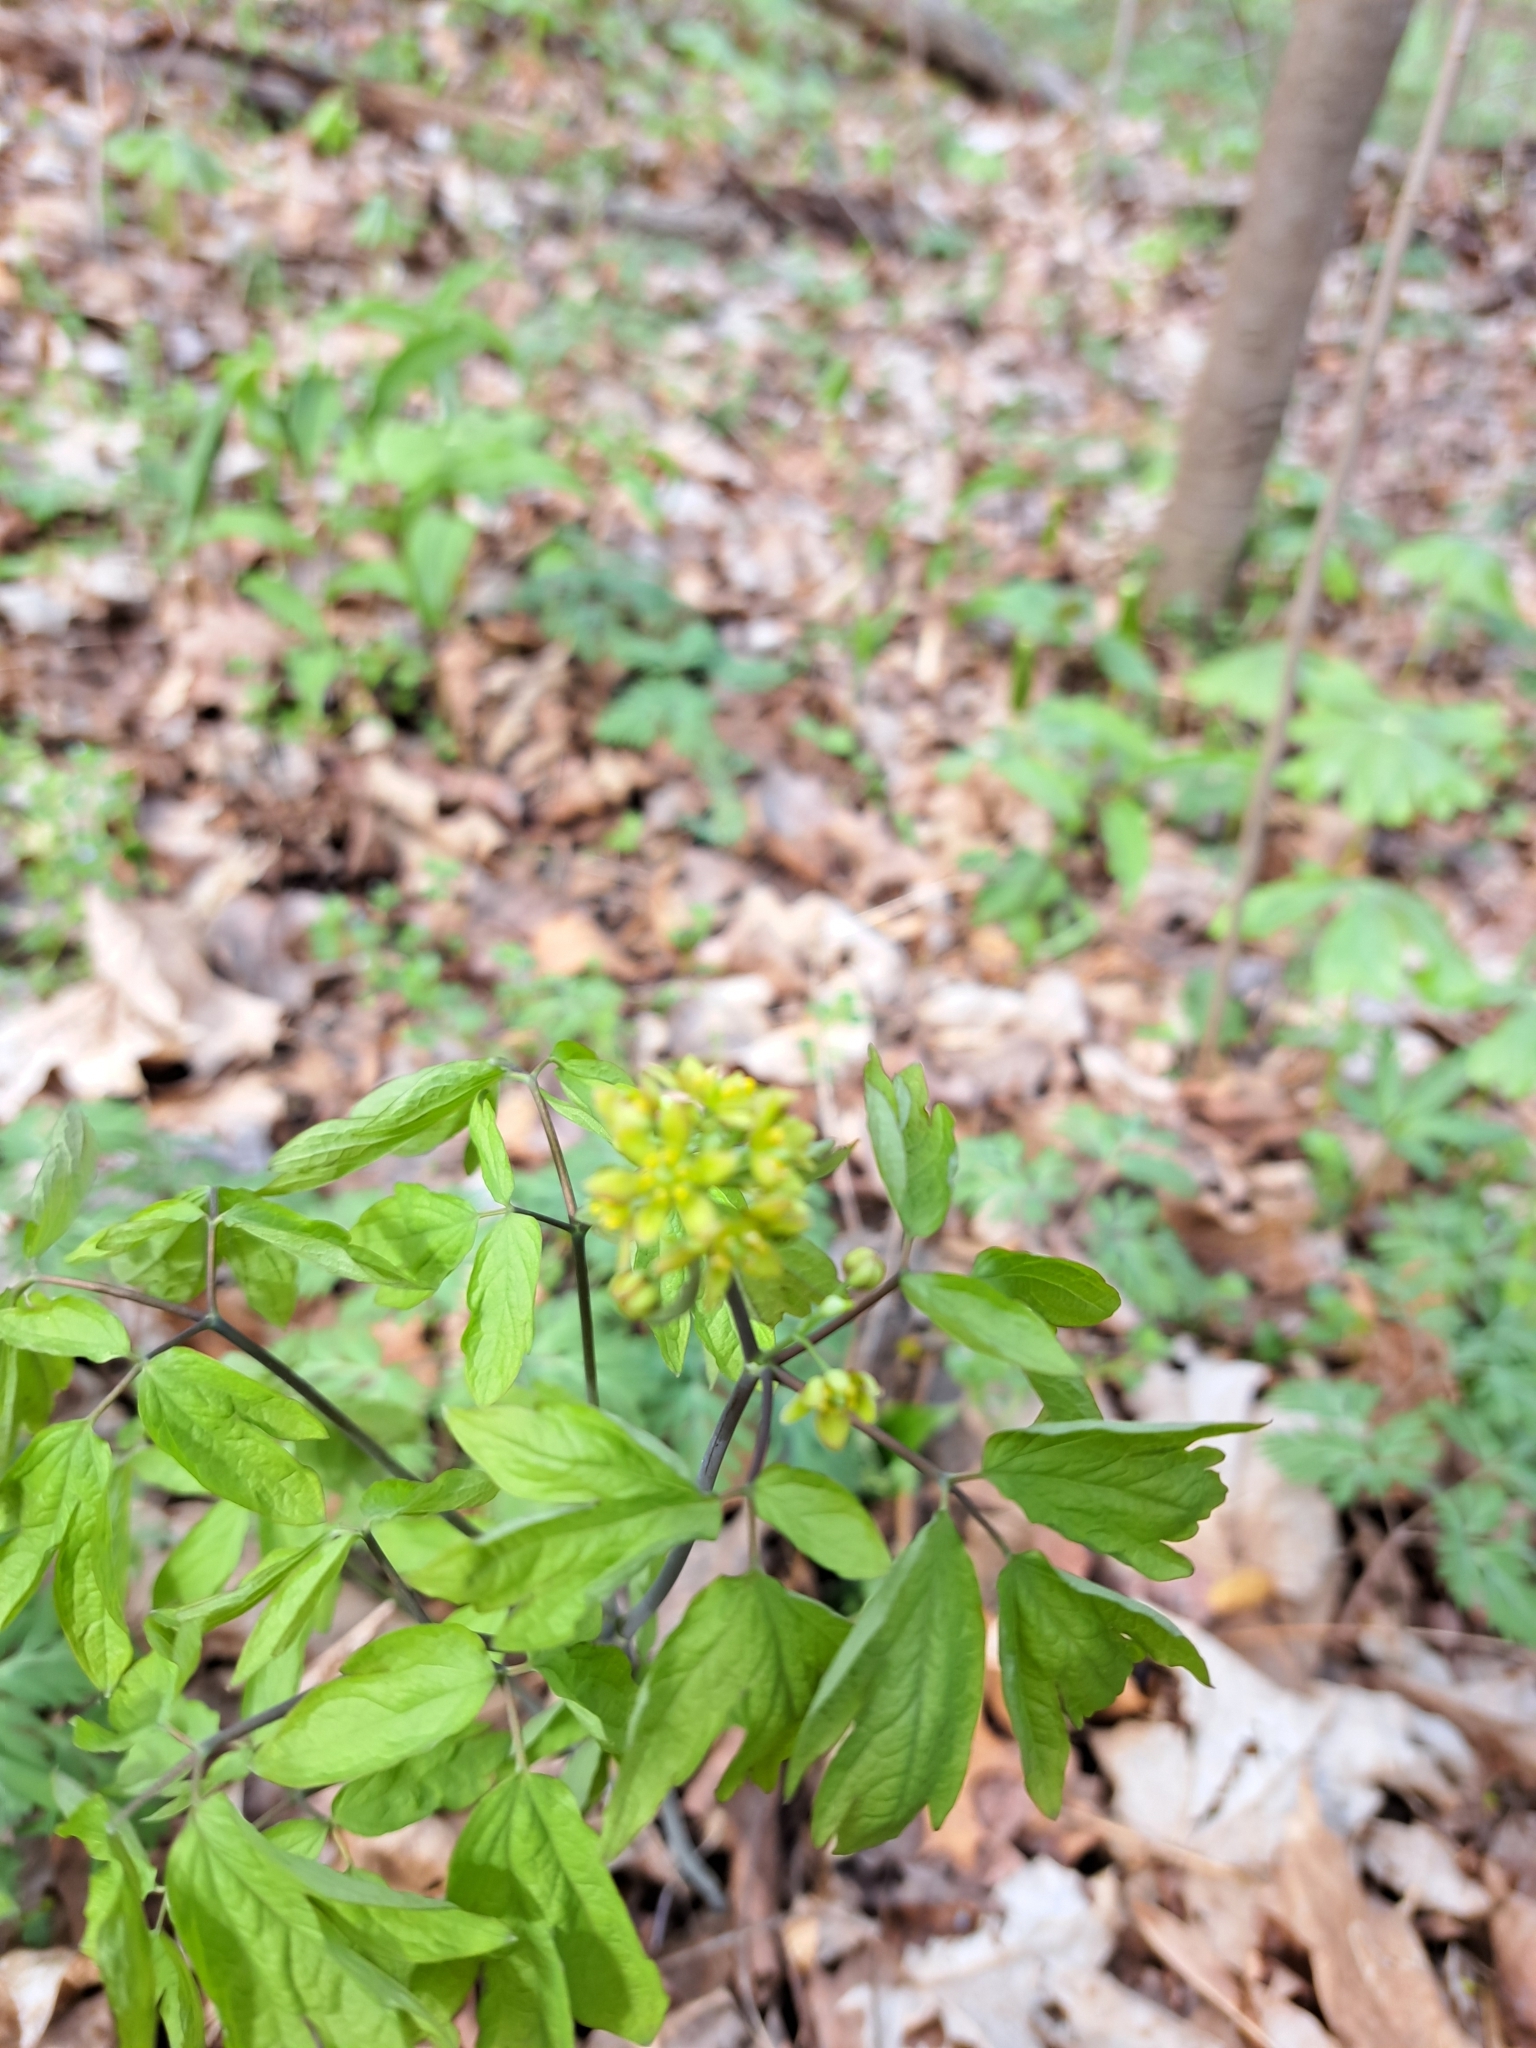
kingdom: Plantae
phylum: Tracheophyta
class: Magnoliopsida
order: Ranunculales
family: Berberidaceae
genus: Caulophyllum
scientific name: Caulophyllum thalictroides
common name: Blue cohosh
